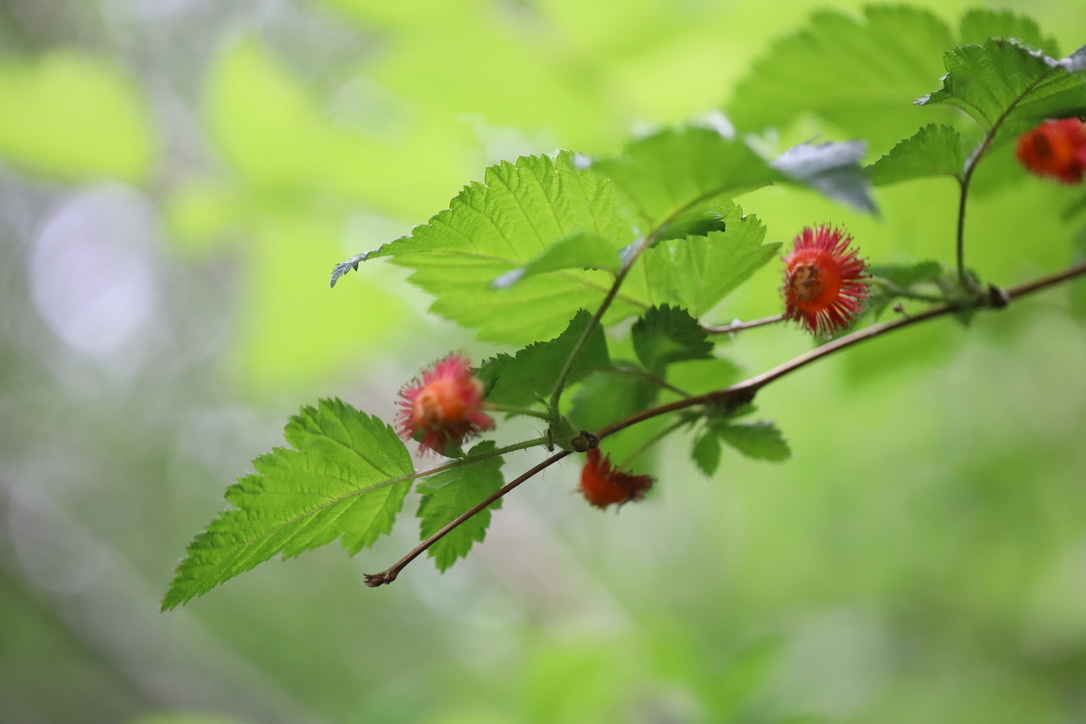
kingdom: Plantae
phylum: Tracheophyta
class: Magnoliopsida
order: Rosales
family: Rosaceae
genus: Rubus
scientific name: Rubus spectabilis
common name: Salmonberry
